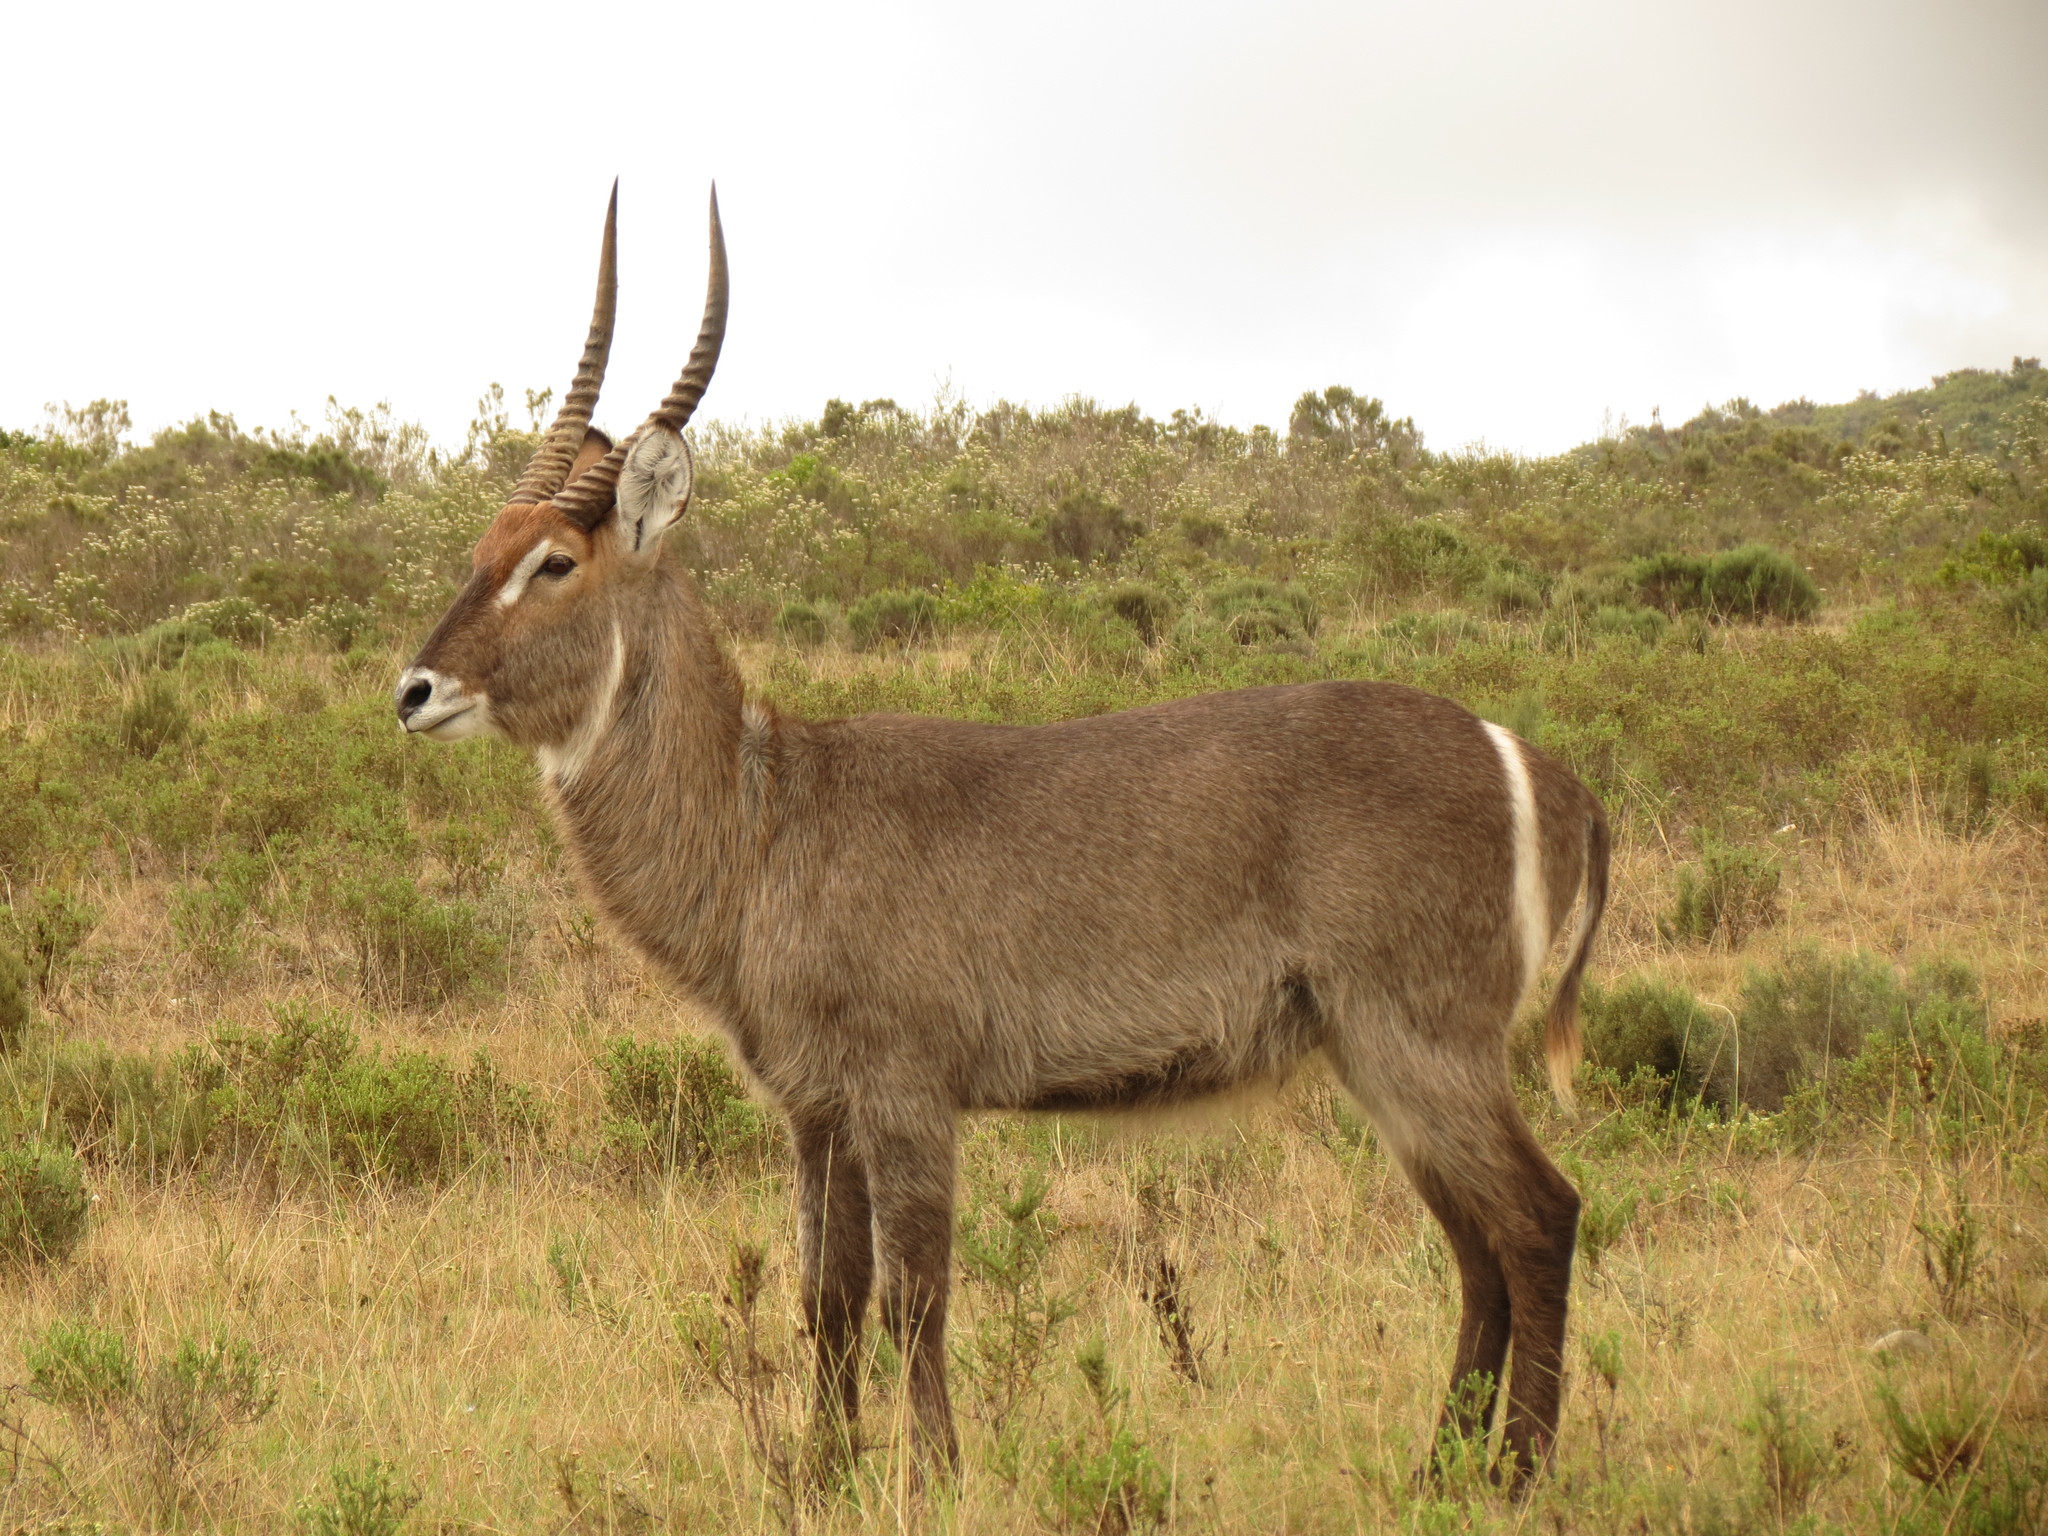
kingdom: Animalia
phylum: Chordata
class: Mammalia
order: Artiodactyla
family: Bovidae
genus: Kobus
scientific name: Kobus ellipsiprymnus
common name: Waterbuck
